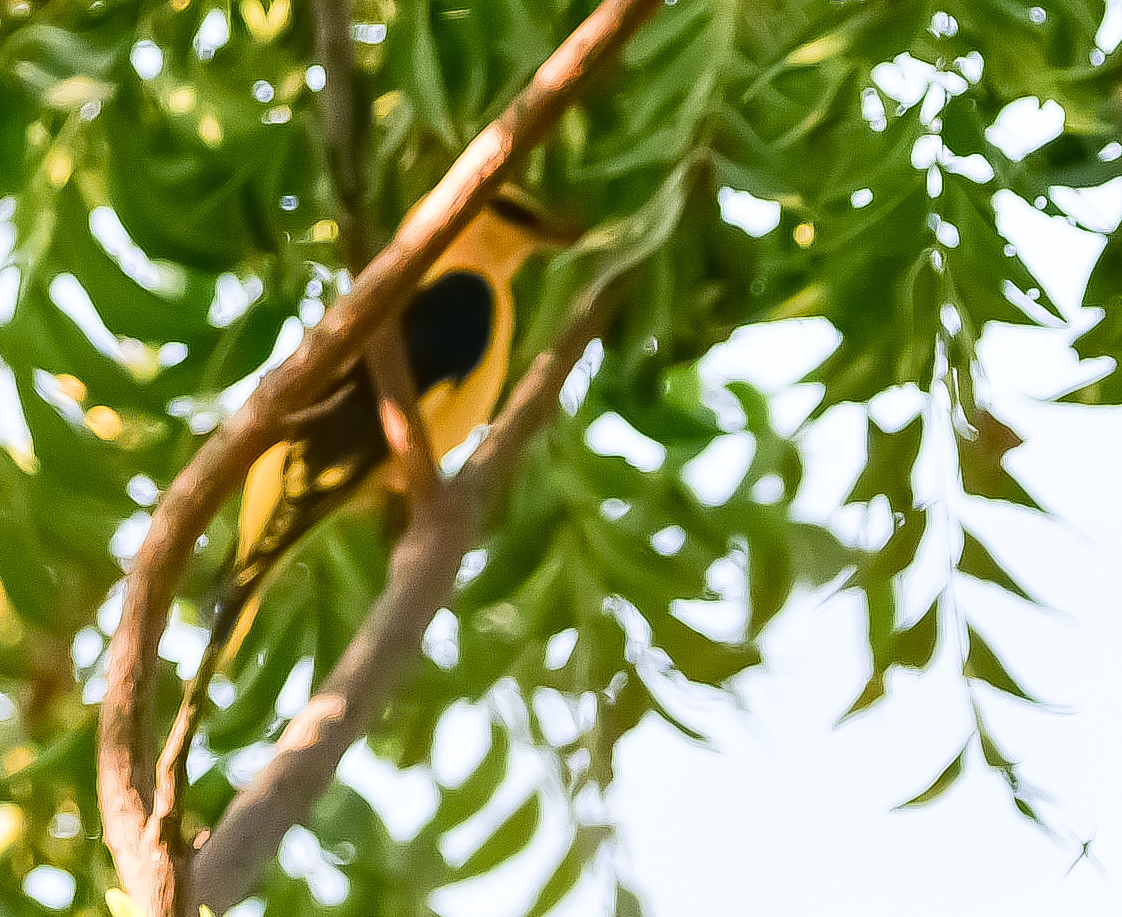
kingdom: Animalia
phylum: Chordata
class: Aves
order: Passeriformes
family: Oriolidae
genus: Oriolus
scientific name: Oriolus kundoo
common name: Indian golden oriole
